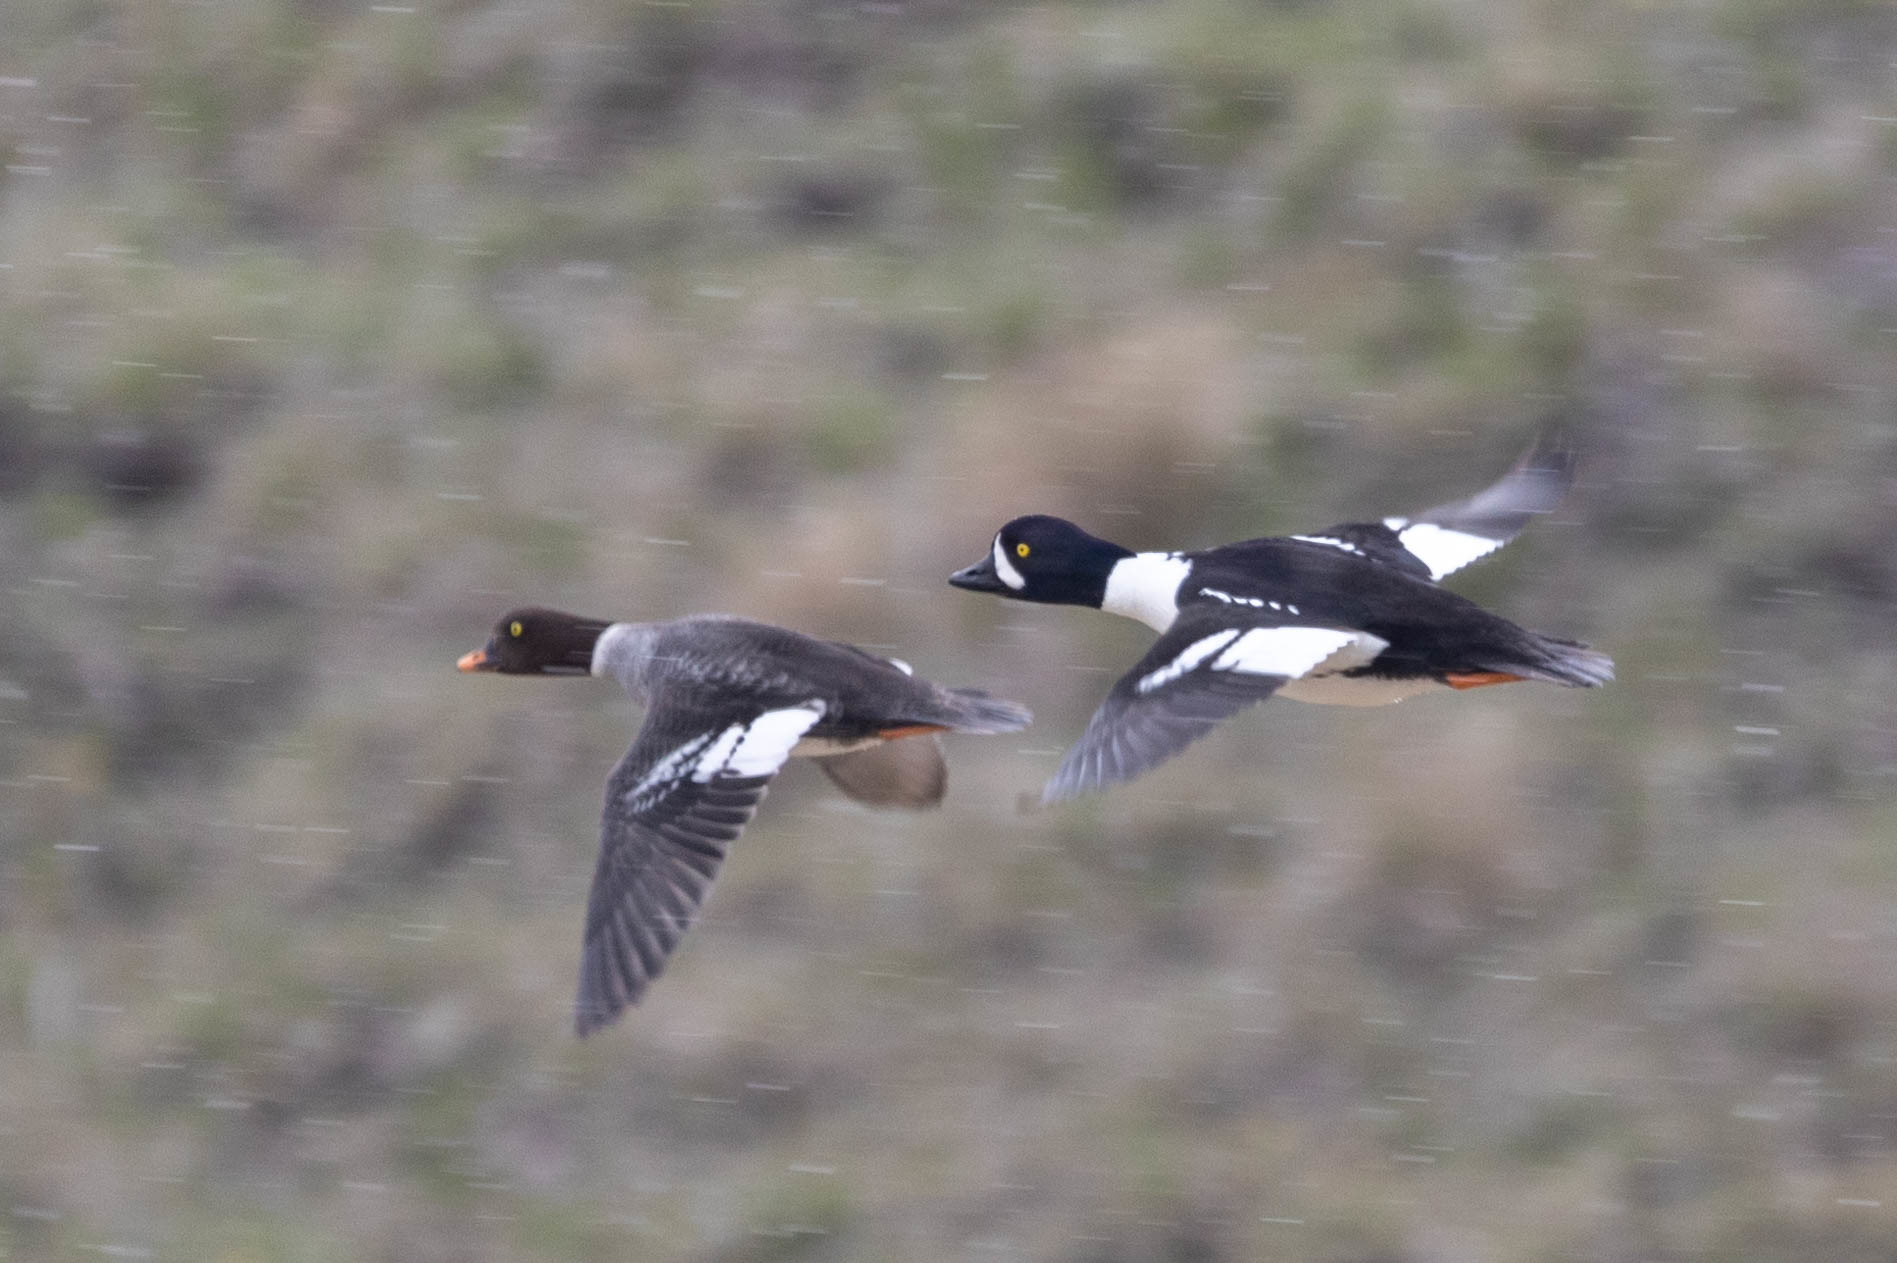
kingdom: Animalia
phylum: Chordata
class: Aves
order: Anseriformes
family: Anatidae
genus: Bucephala
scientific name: Bucephala islandica
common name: Barrow's goldeneye
